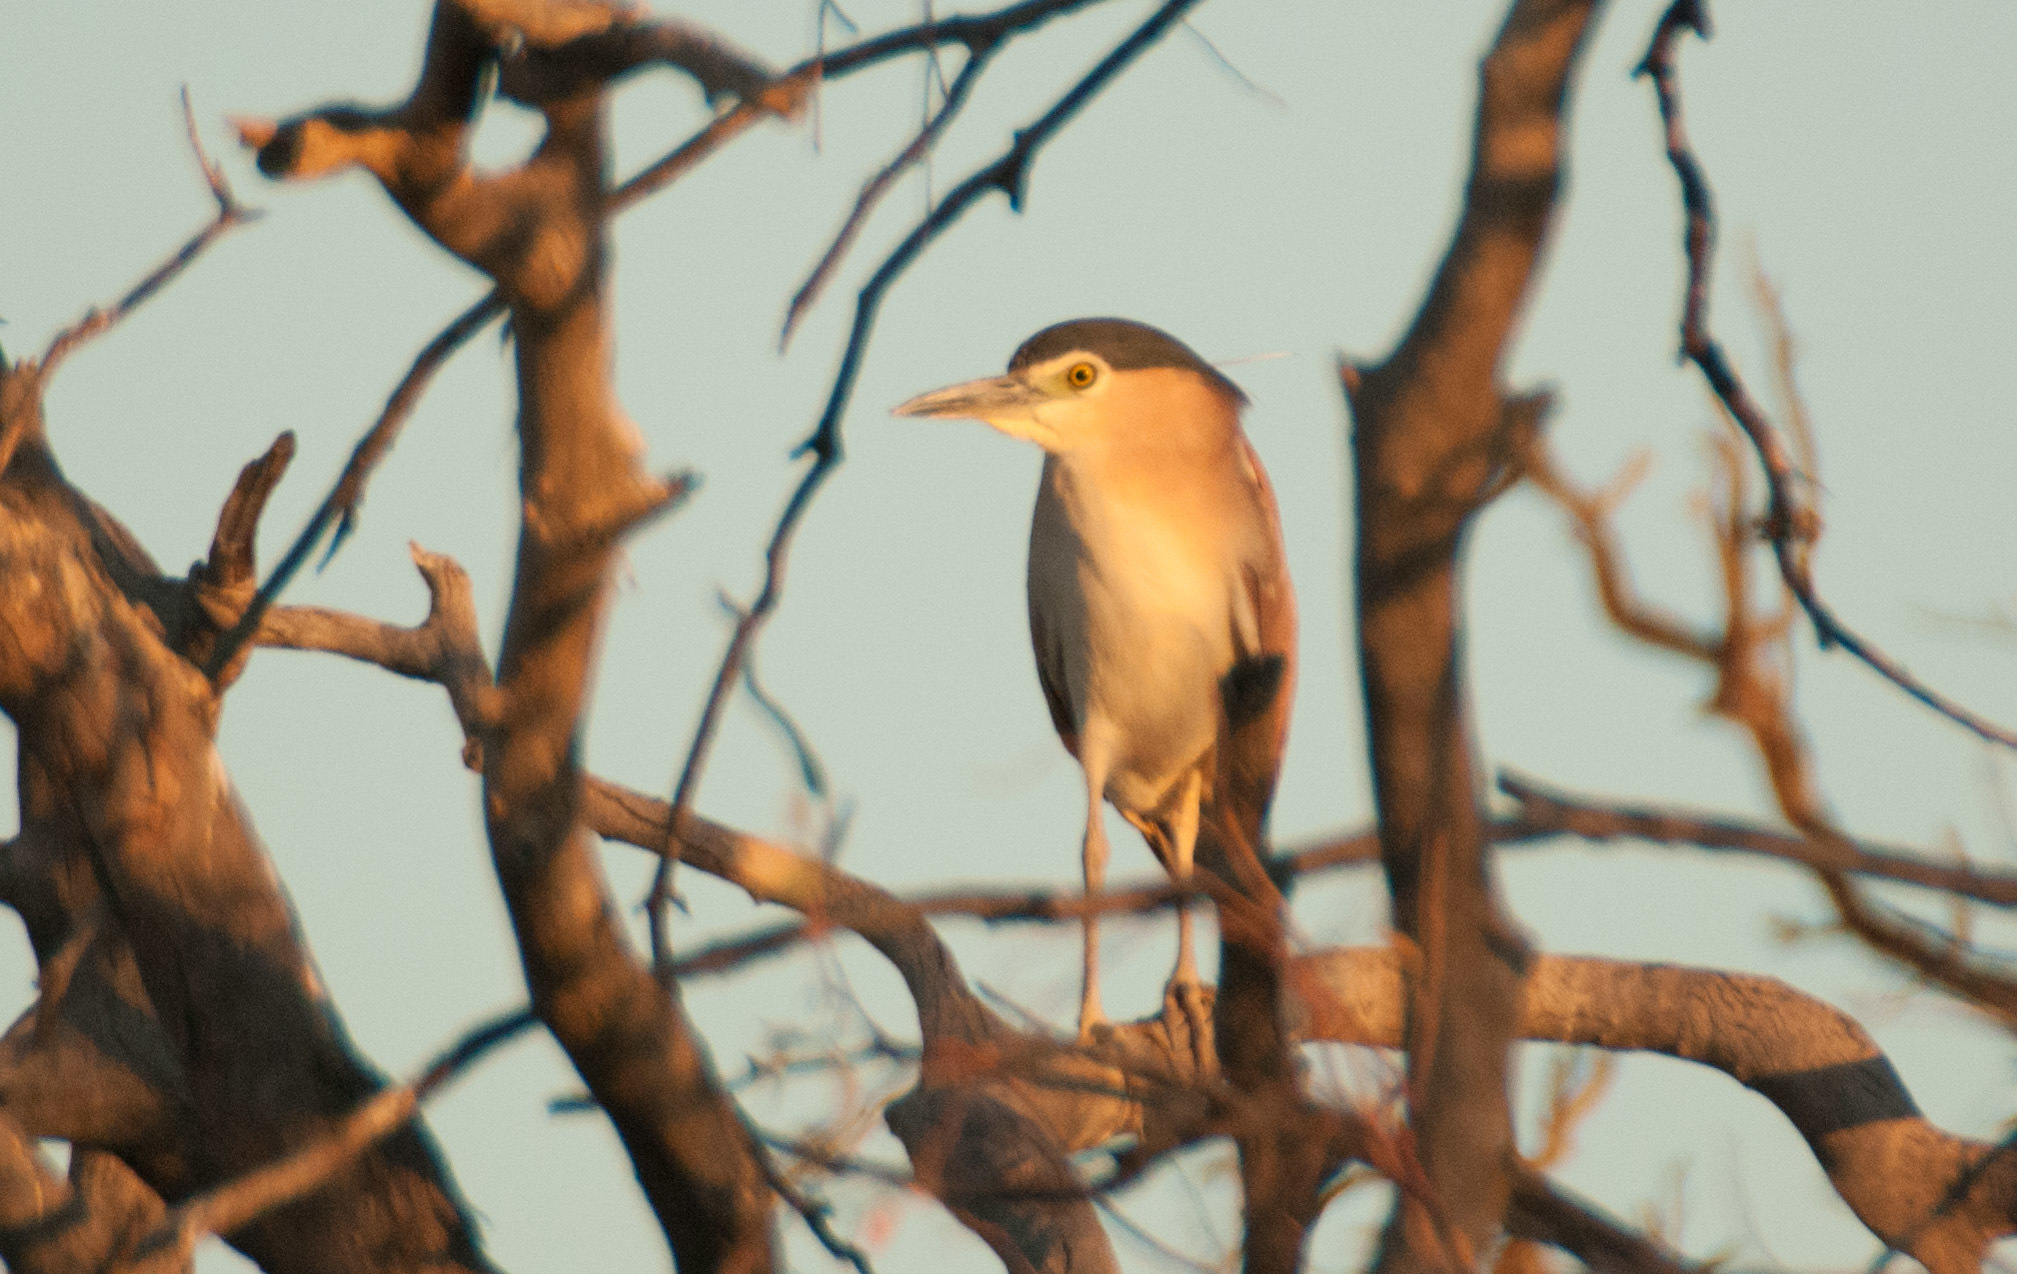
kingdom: Animalia
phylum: Chordata
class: Aves
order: Pelecaniformes
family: Ardeidae
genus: Nycticorax
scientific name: Nycticorax caledonicus
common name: Rufous night-heron
